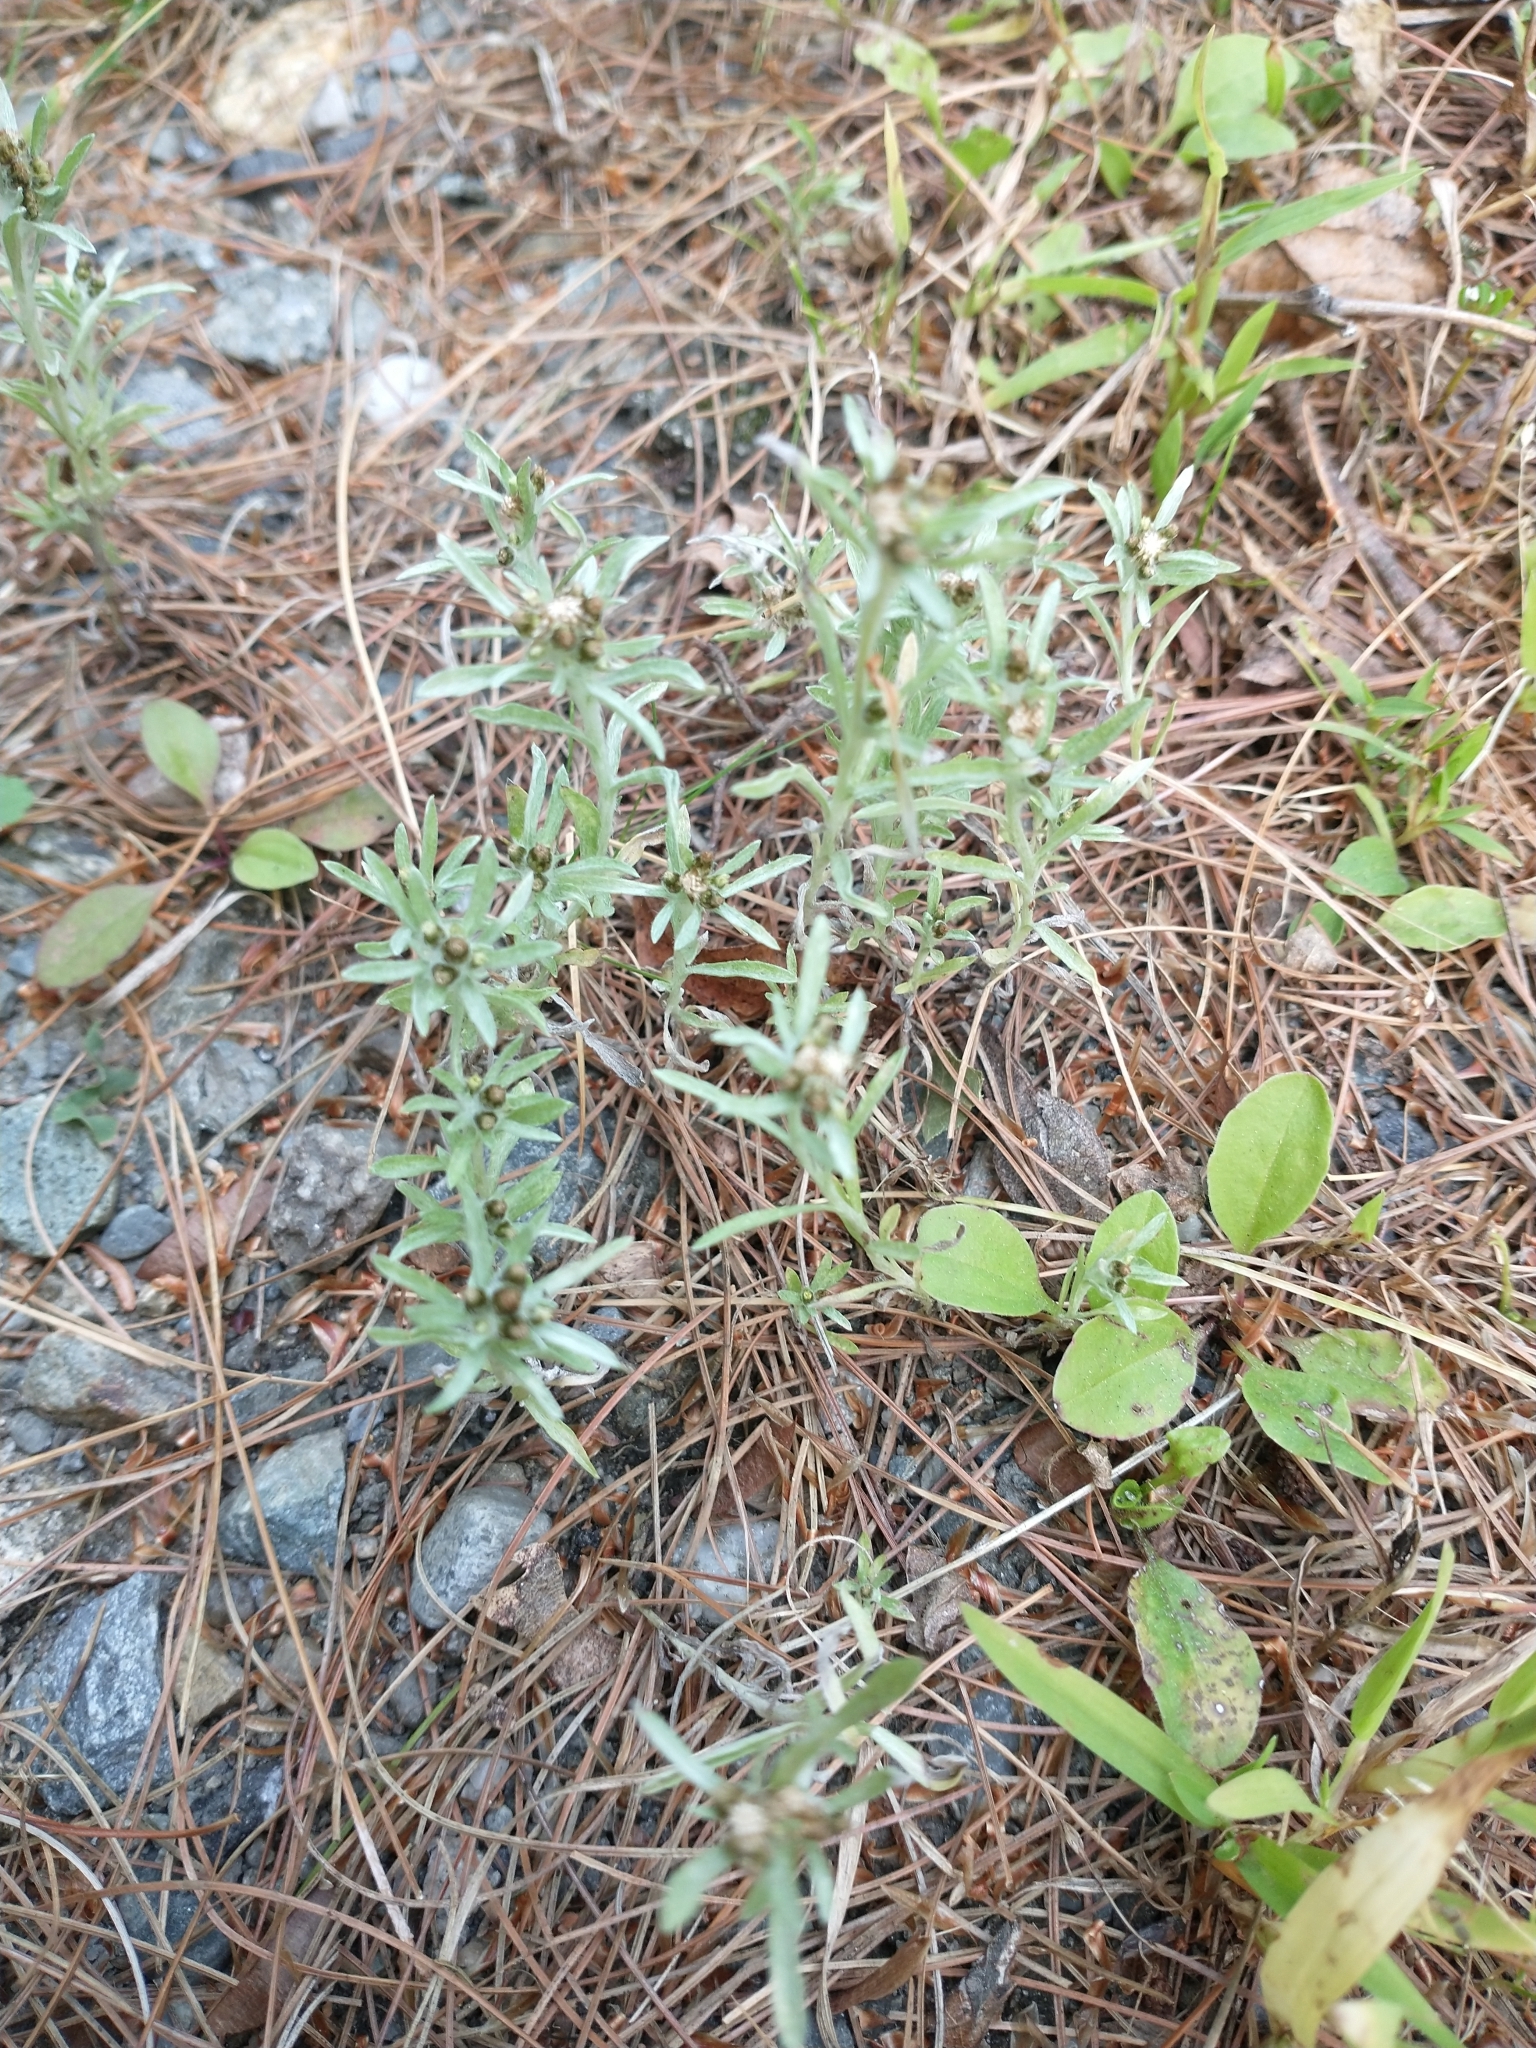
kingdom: Plantae
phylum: Tracheophyta
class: Magnoliopsida
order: Asterales
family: Asteraceae
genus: Gnaphalium
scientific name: Gnaphalium uliginosum
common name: Marsh cudweed
